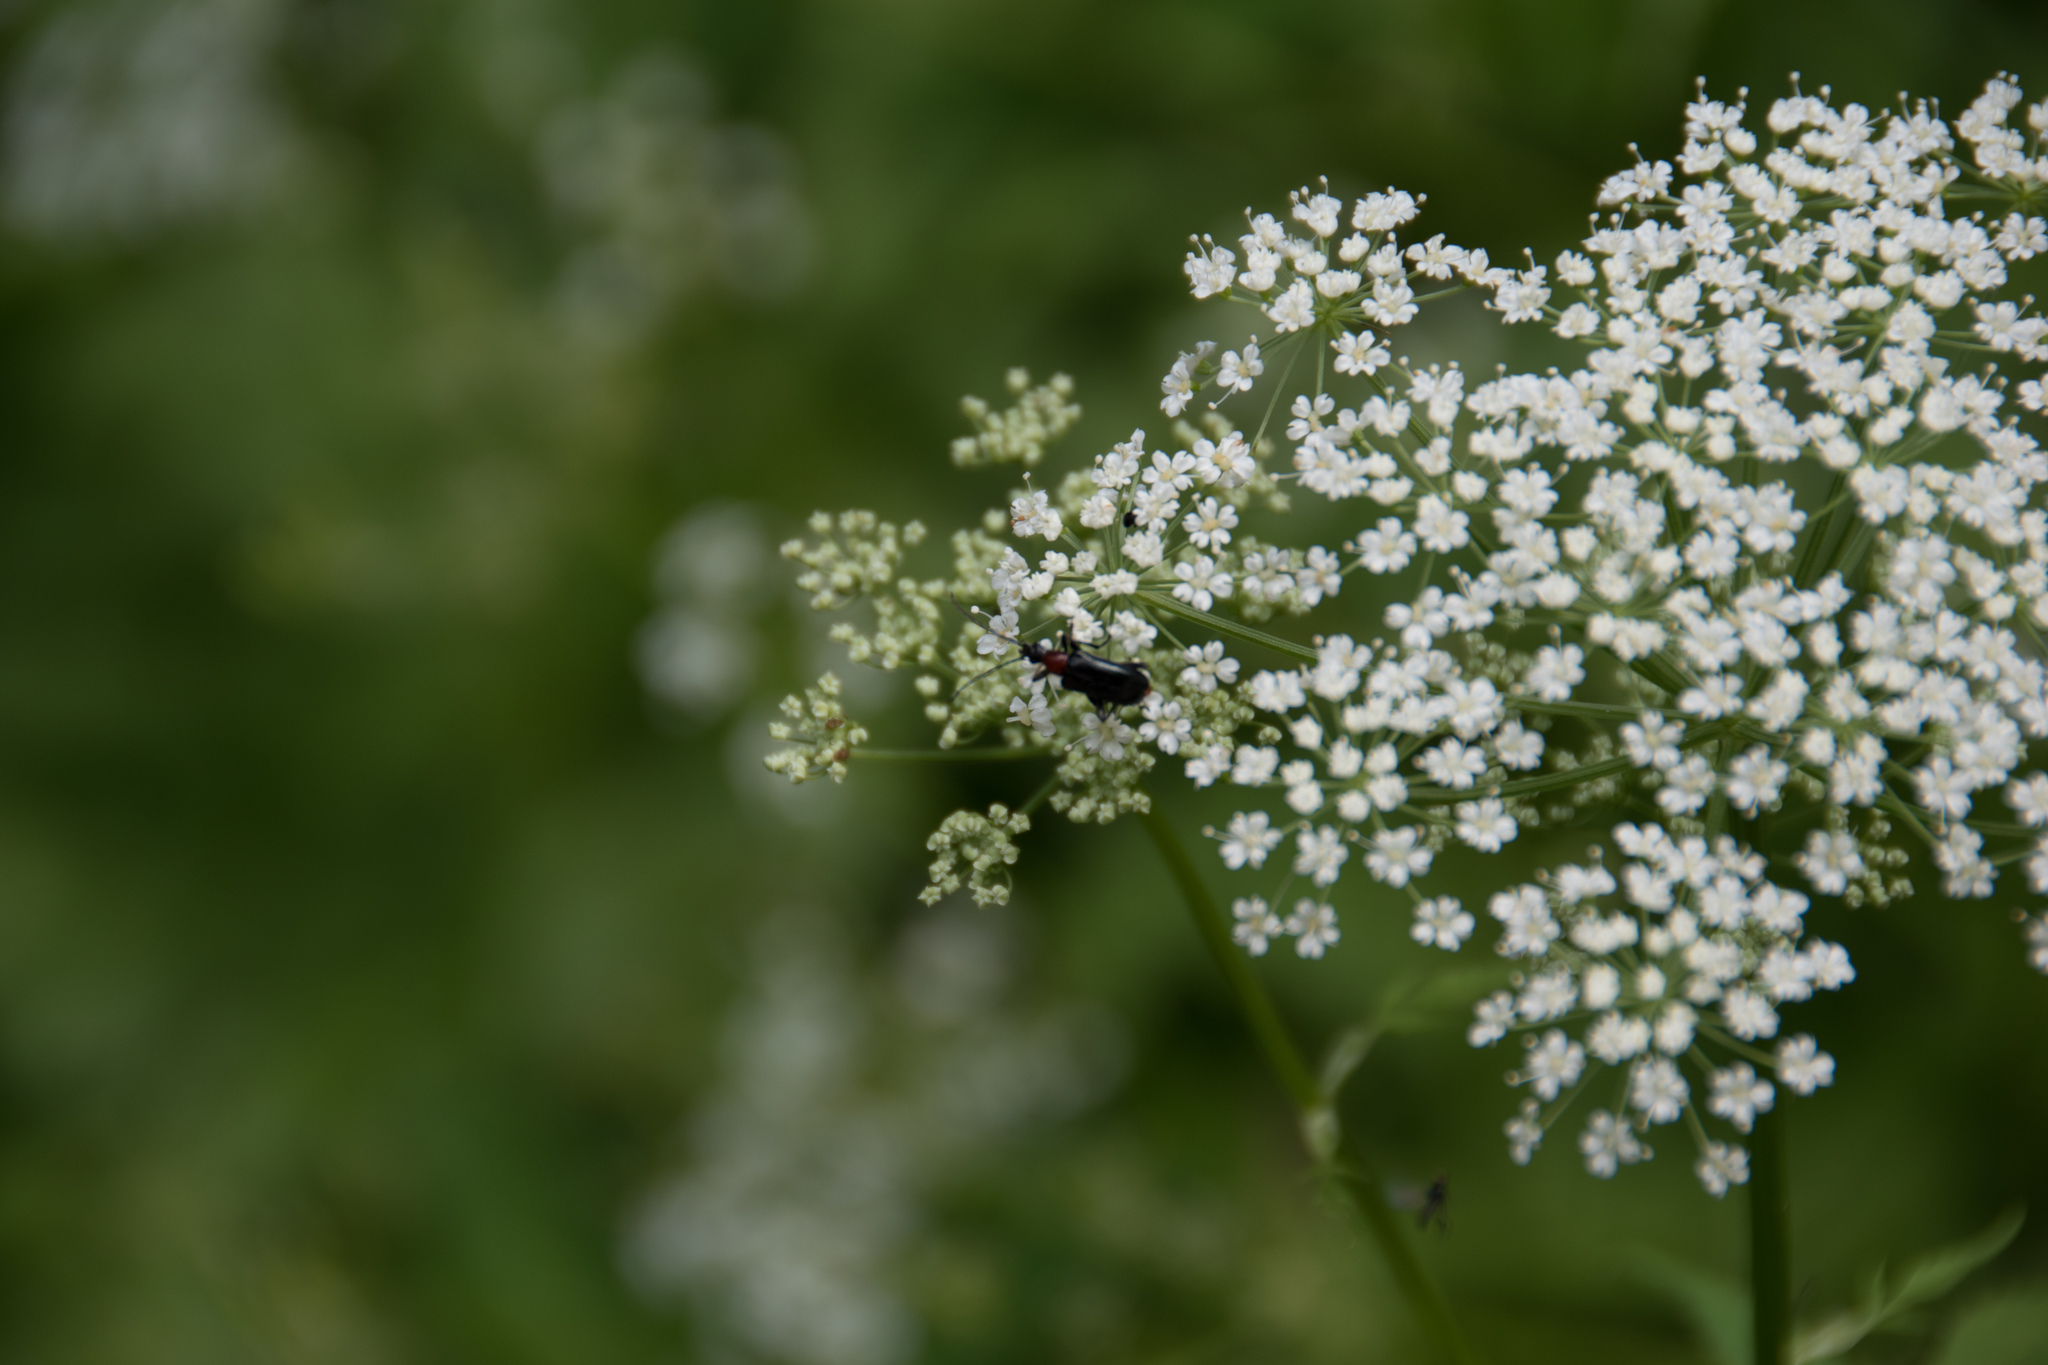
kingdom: Animalia
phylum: Arthropoda
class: Insecta
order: Coleoptera
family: Cerambycidae
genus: Dinoptera
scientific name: Dinoptera collaris
